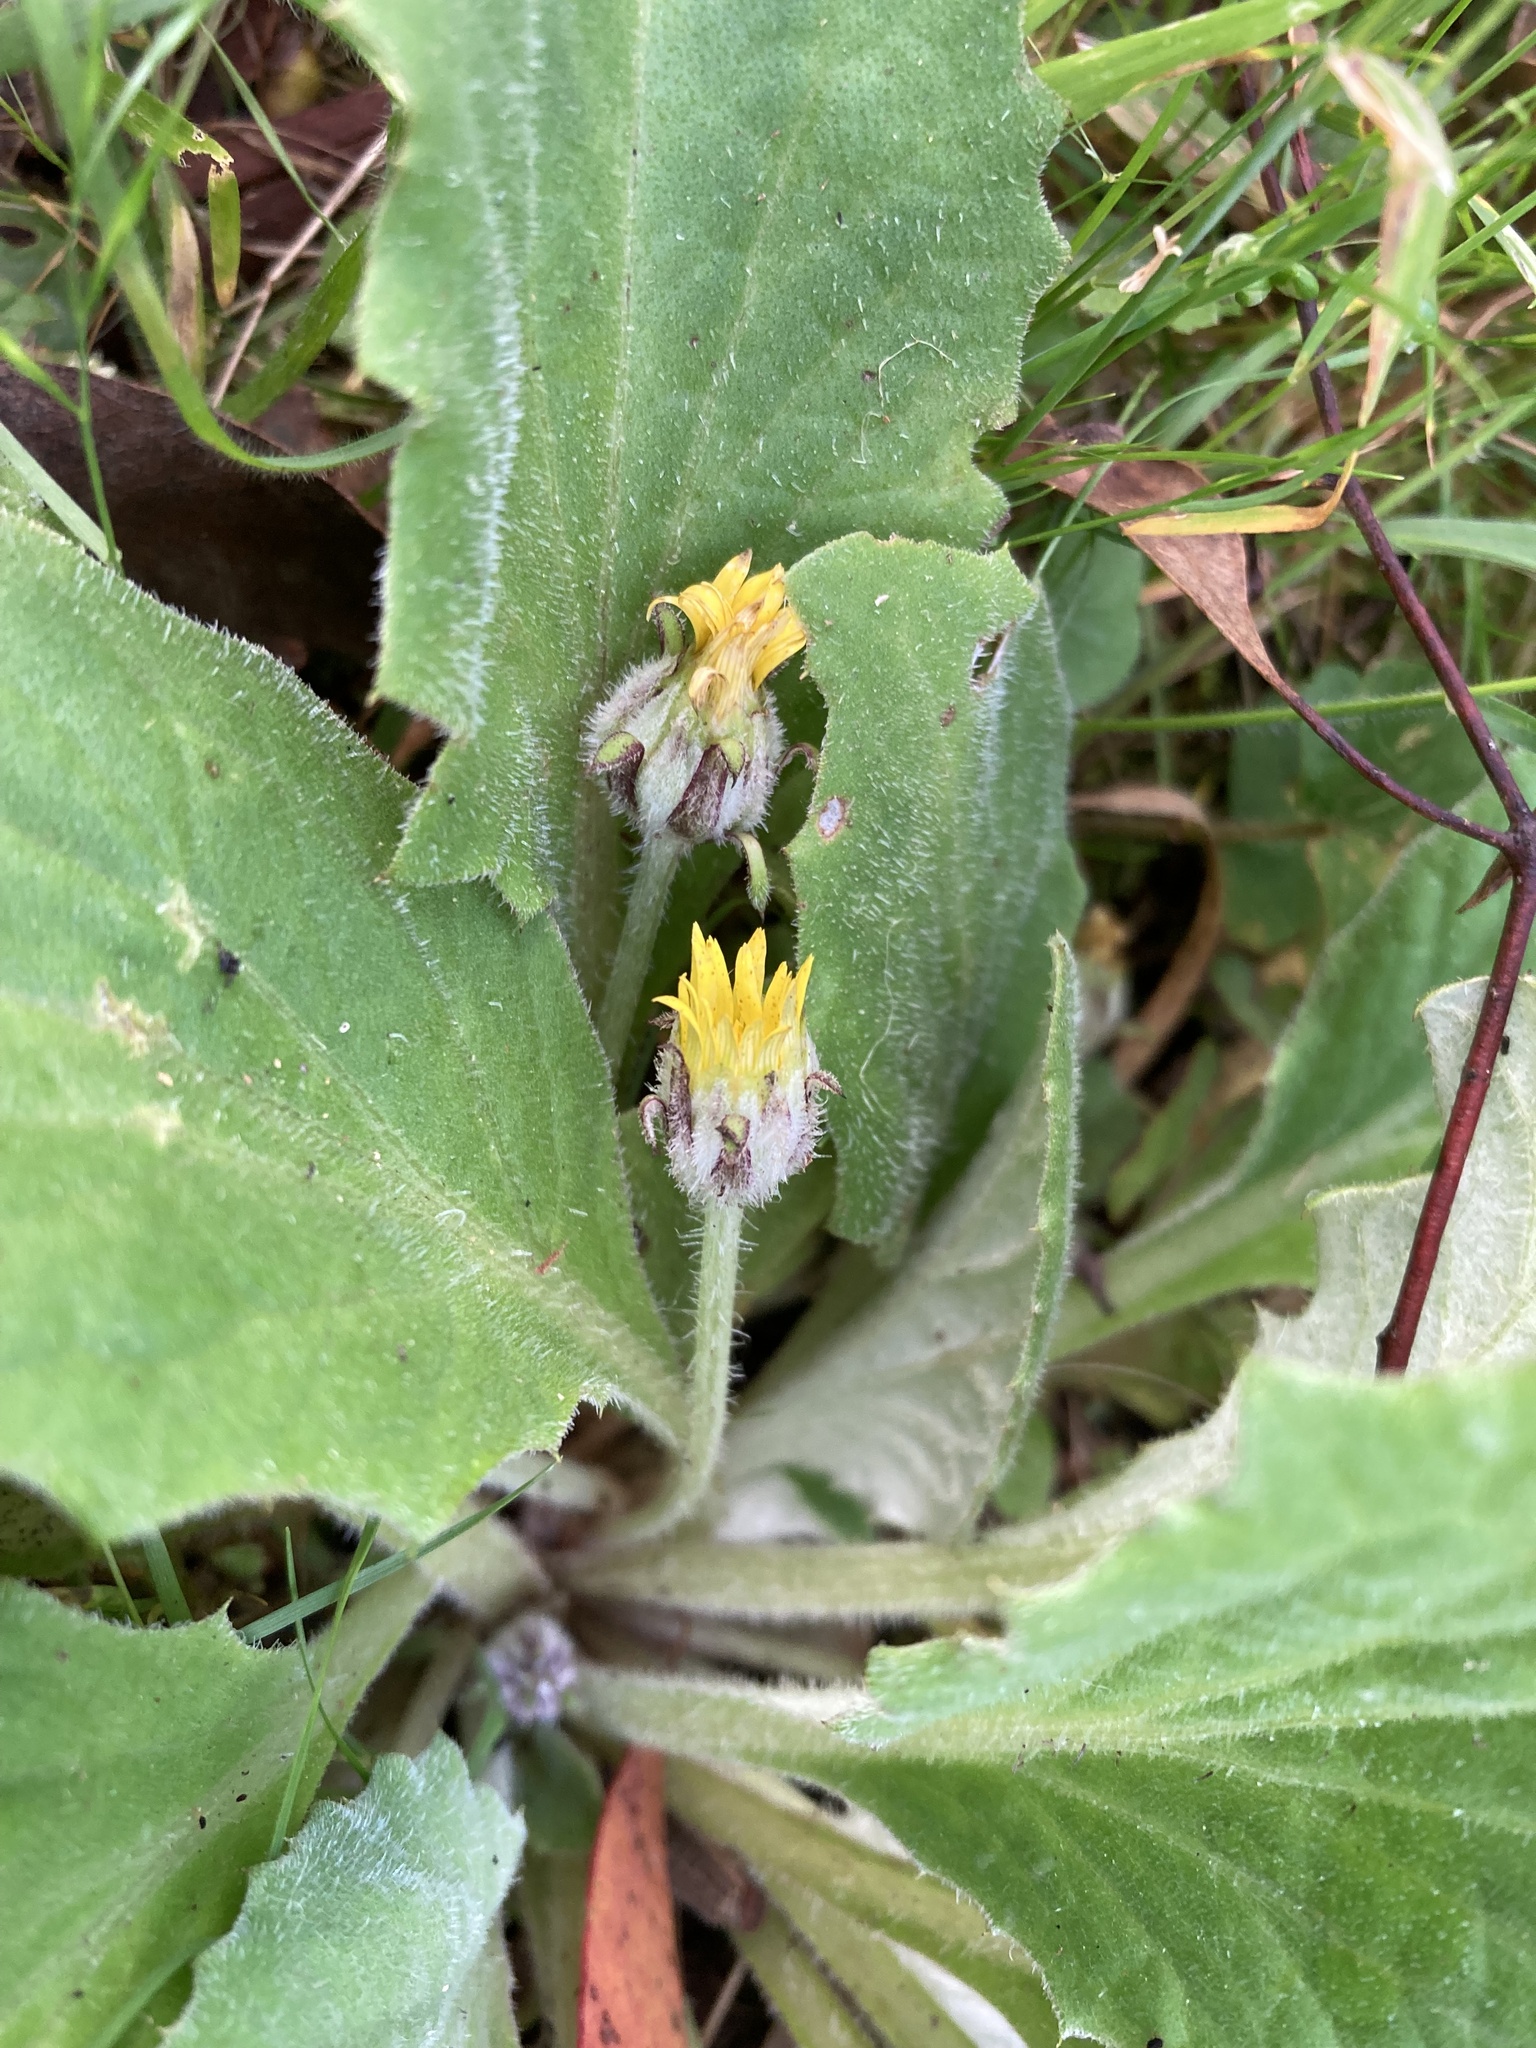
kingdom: Plantae
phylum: Tracheophyta
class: Magnoliopsida
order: Asterales
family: Asteraceae
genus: Cymbonotus
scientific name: Cymbonotus preissianus
